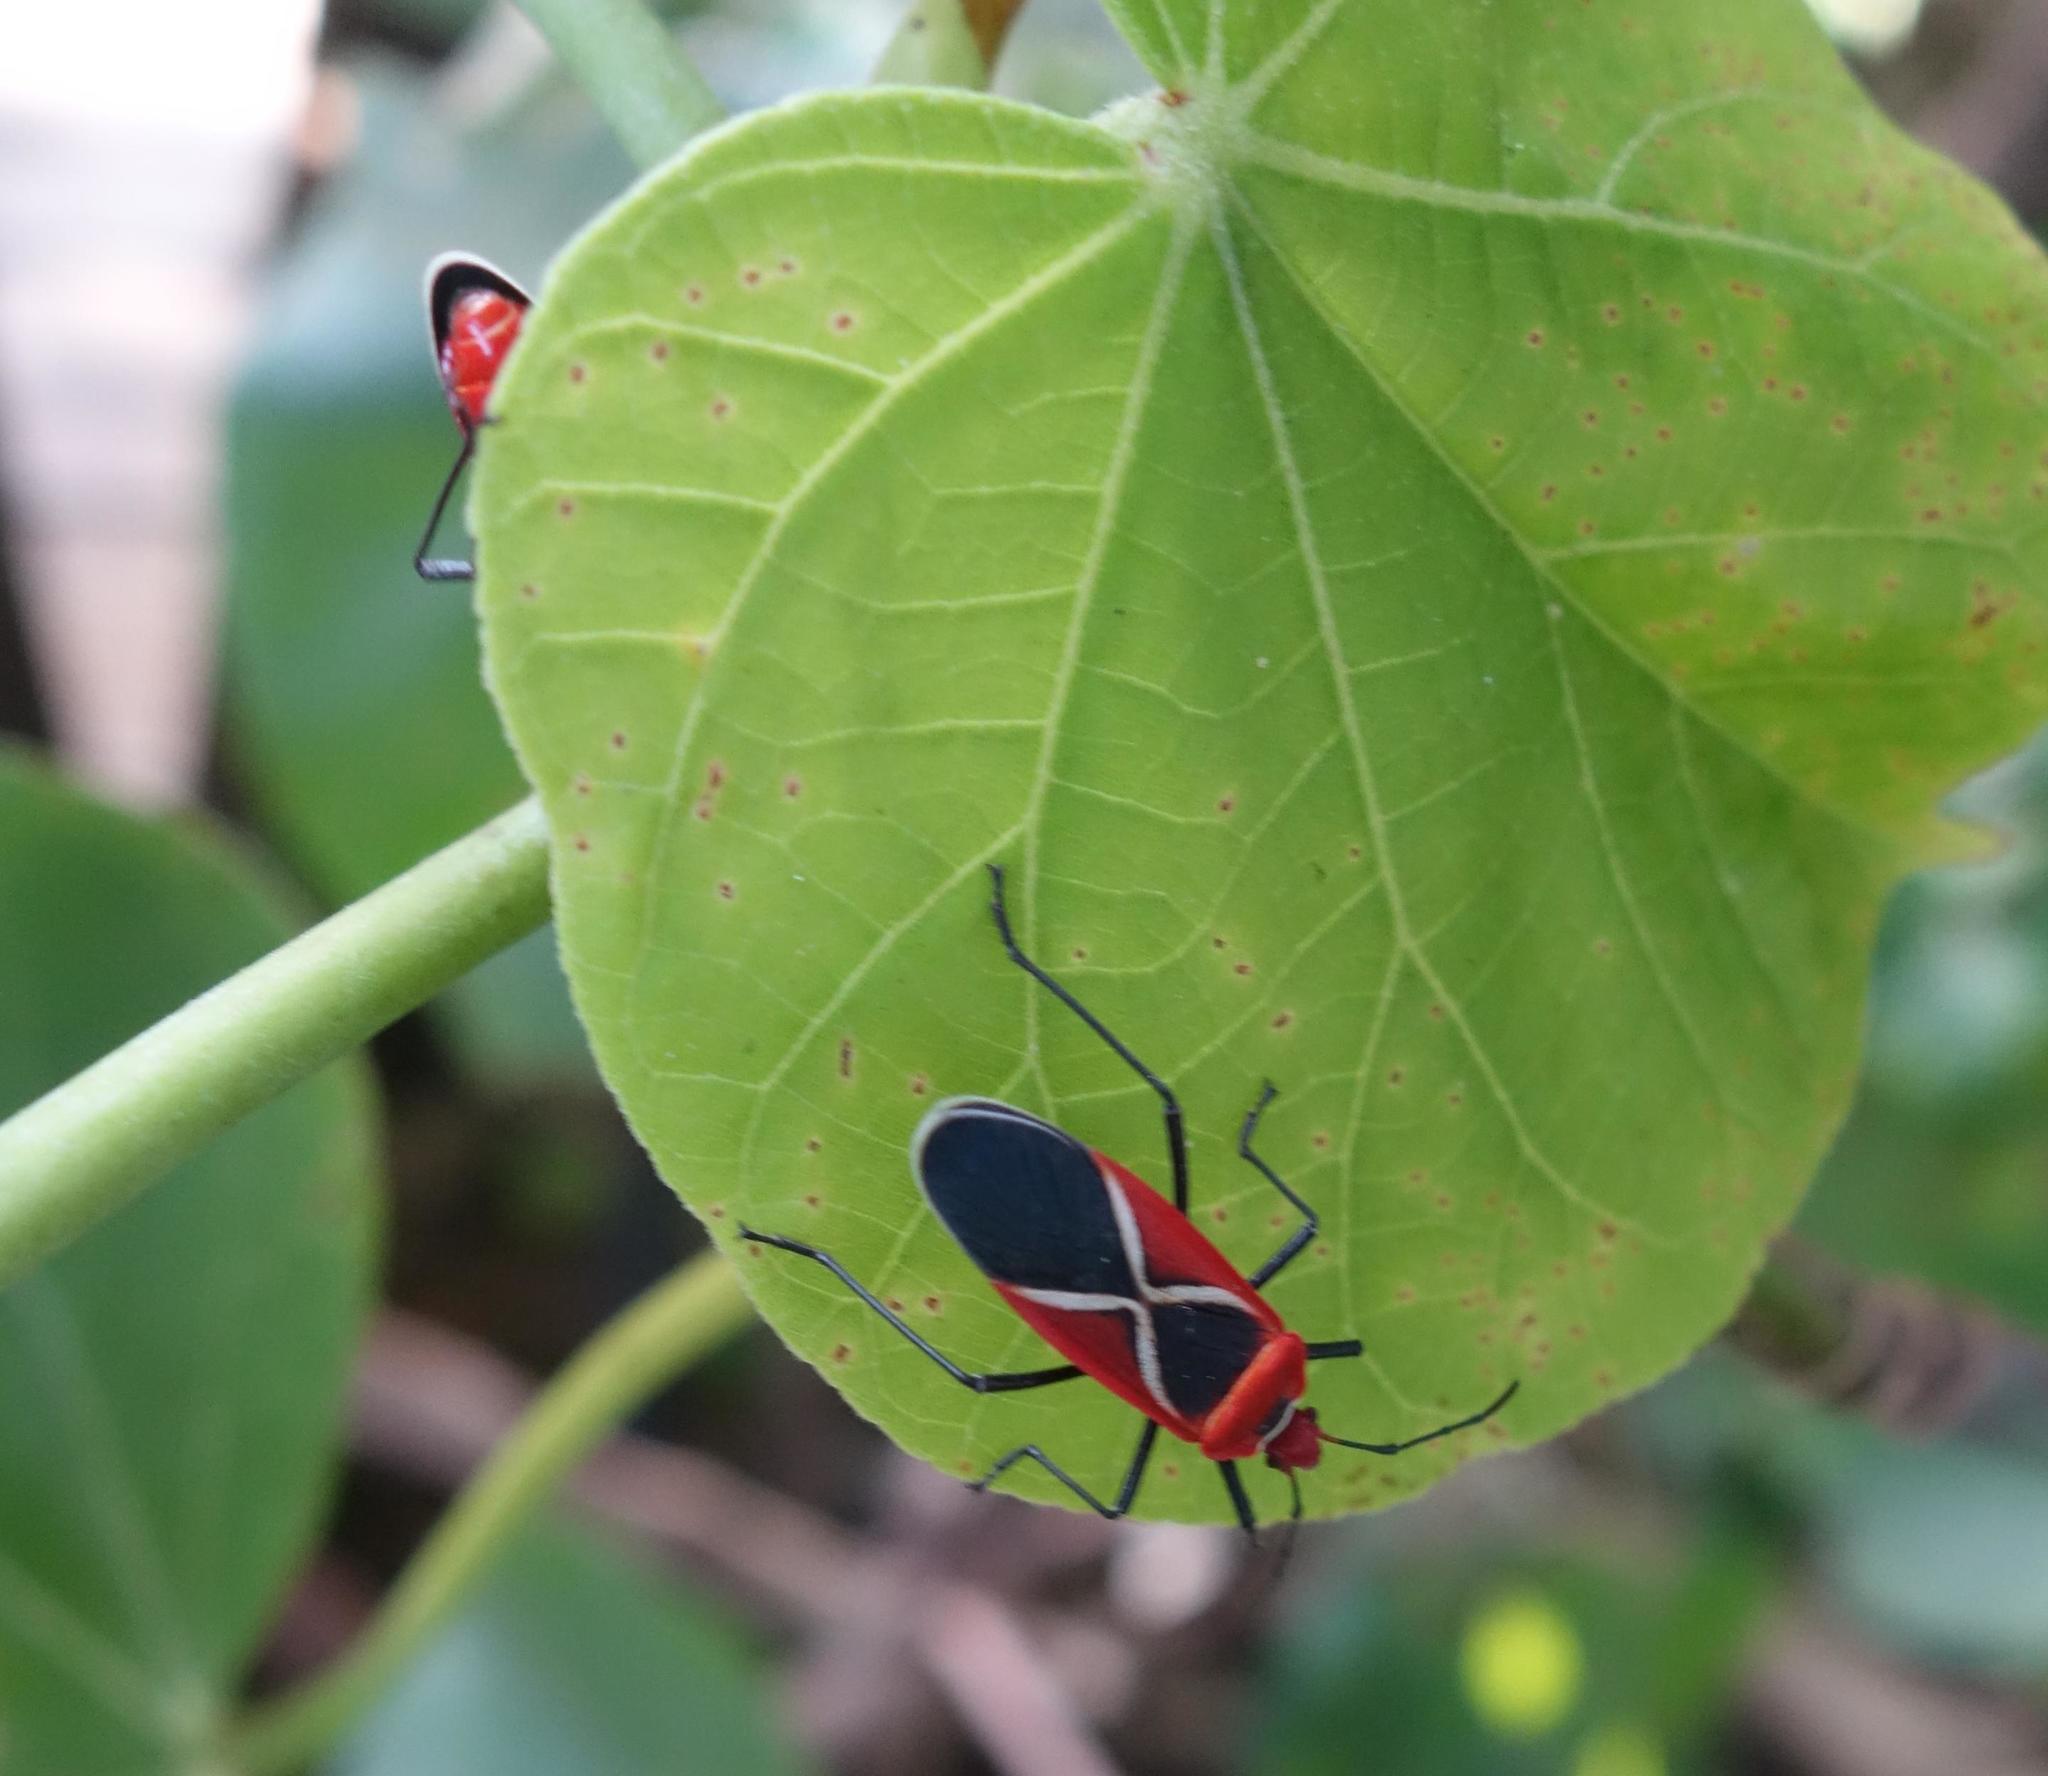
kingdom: Animalia
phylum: Arthropoda
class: Insecta
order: Hemiptera
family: Pyrrhocoridae
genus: Dysdercus
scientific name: Dysdercus decussatus
